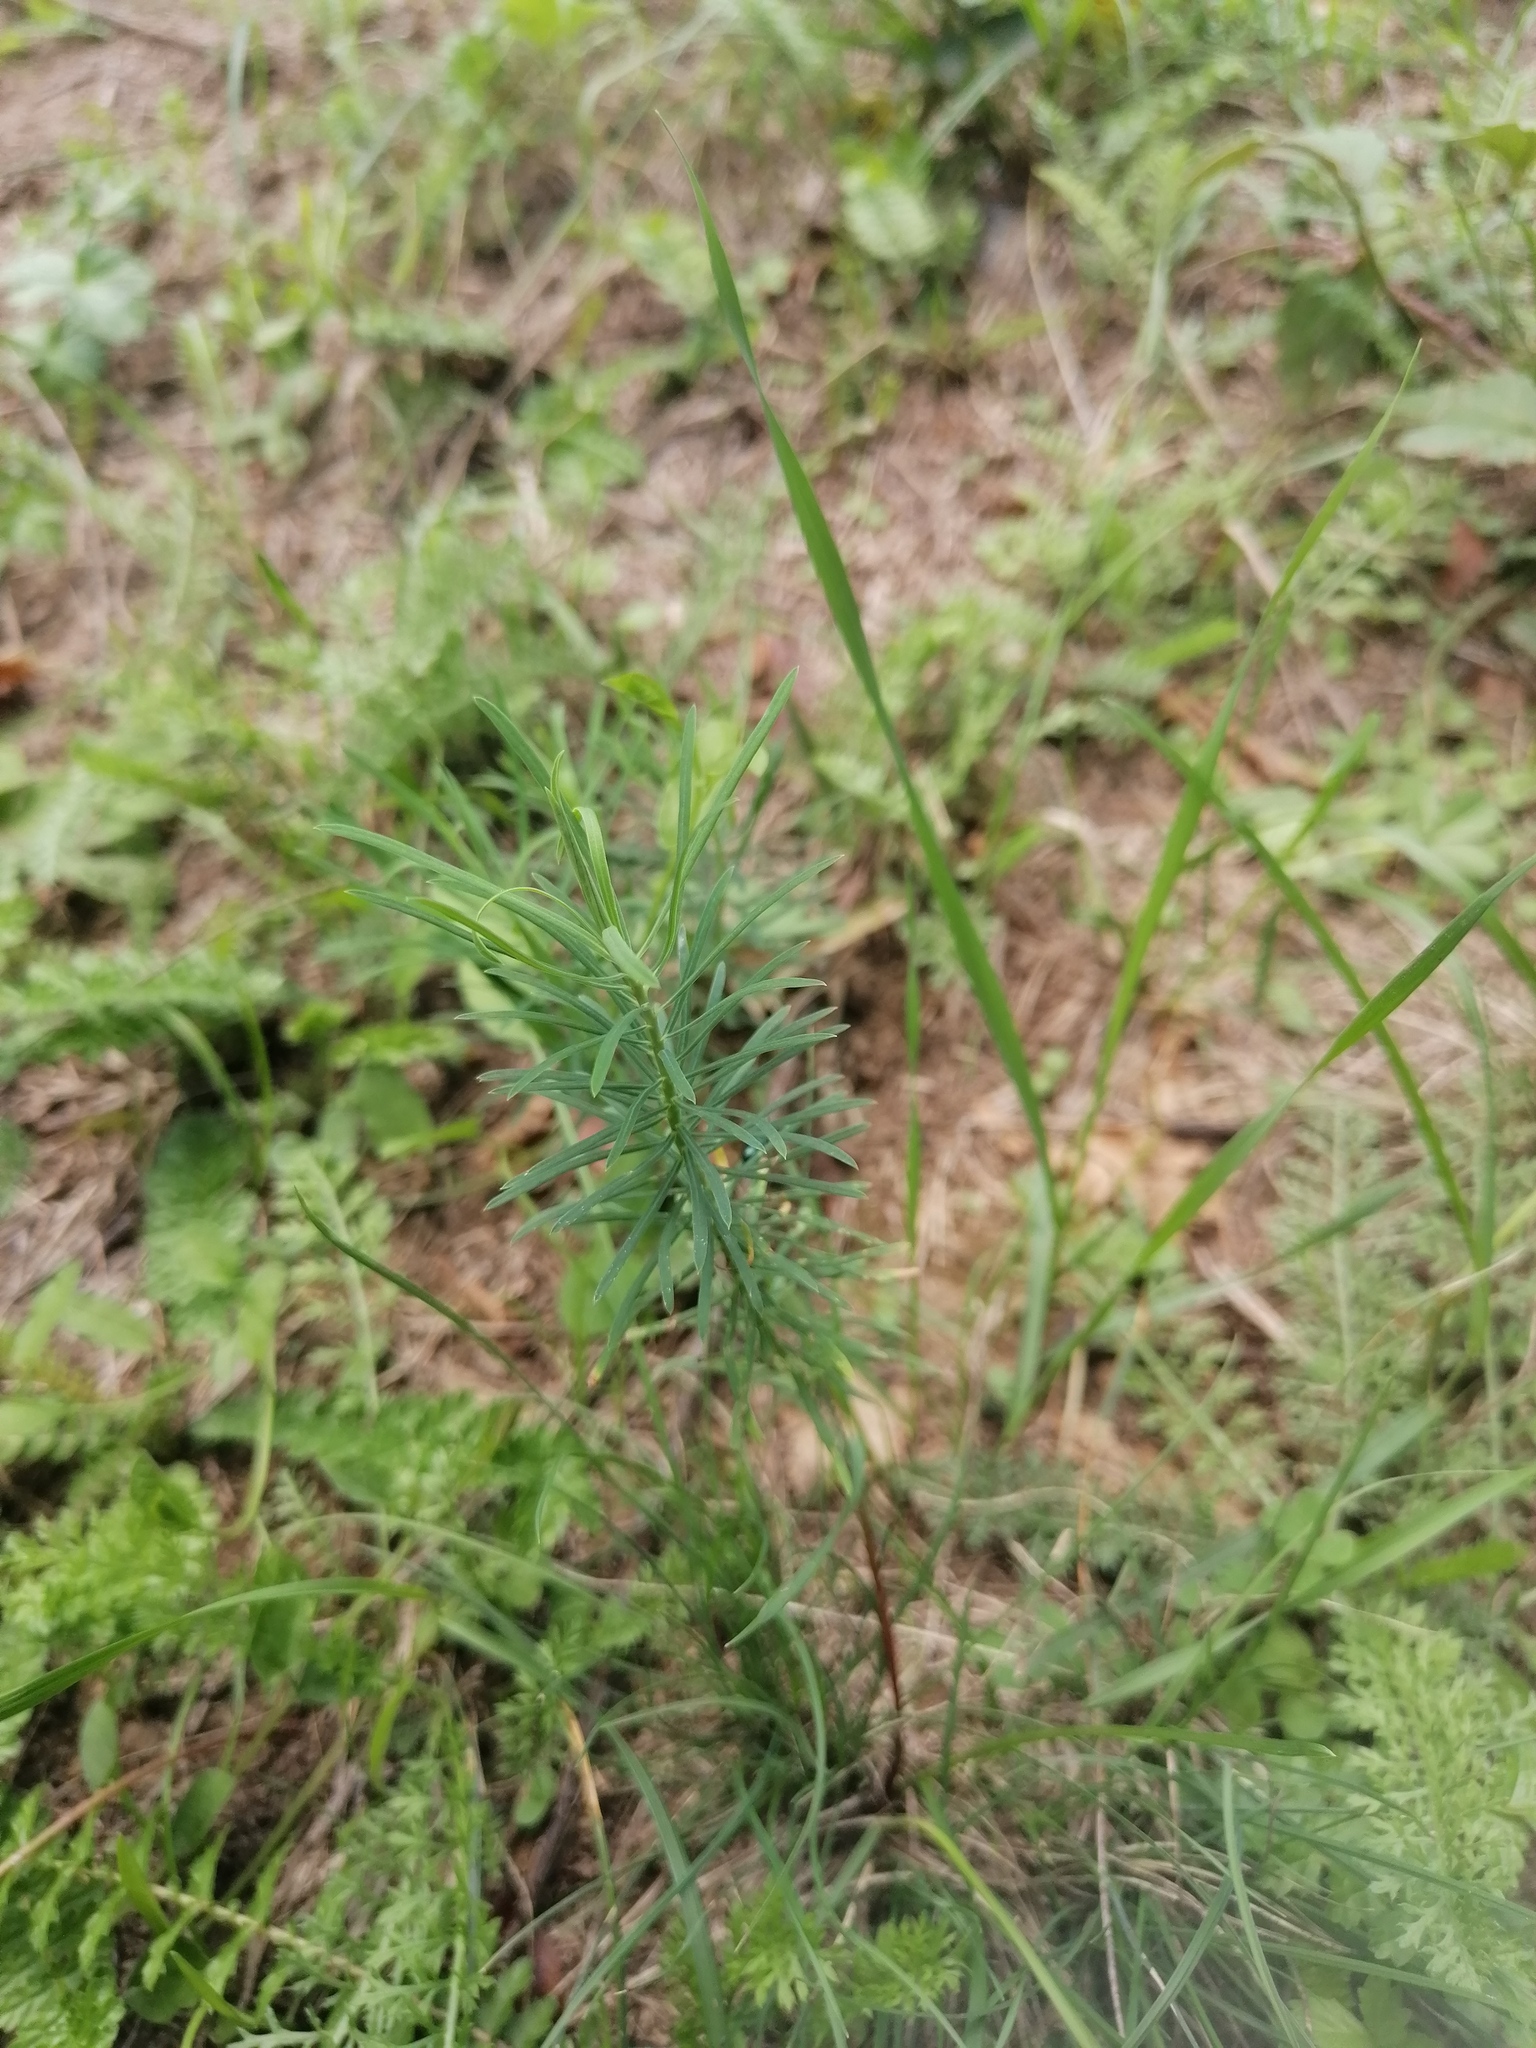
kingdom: Plantae
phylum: Tracheophyta
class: Magnoliopsida
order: Malpighiales
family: Euphorbiaceae
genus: Euphorbia
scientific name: Euphorbia cyparissias
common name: Cypress spurge
